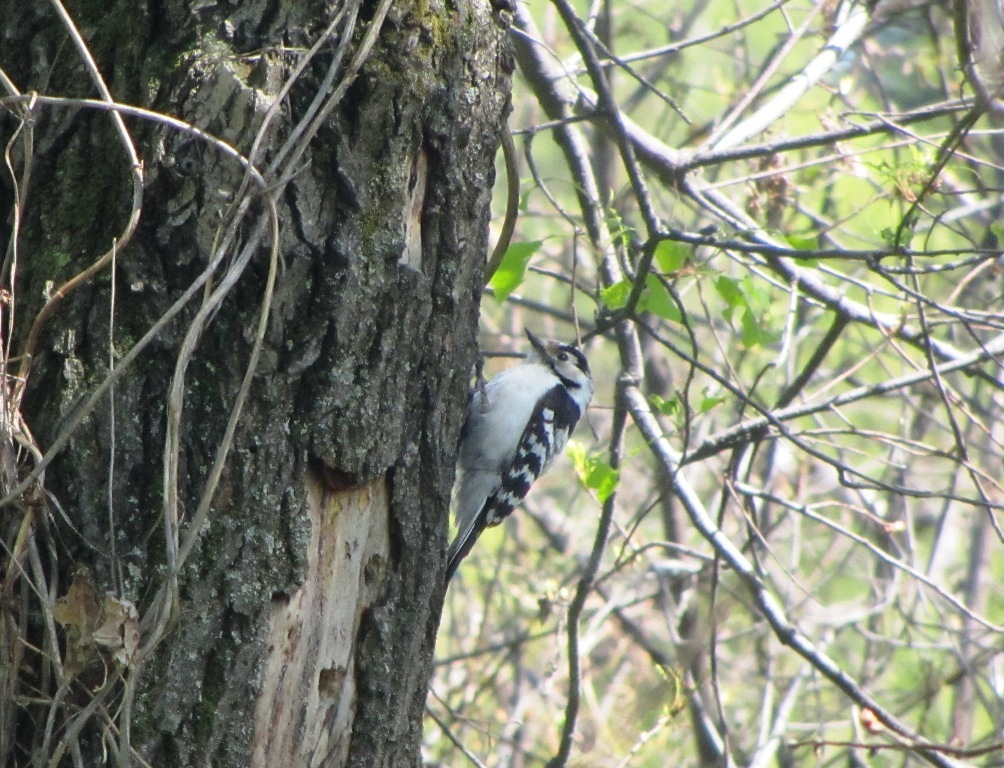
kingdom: Animalia
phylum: Chordata
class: Aves
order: Piciformes
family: Picidae
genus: Dryobates
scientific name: Dryobates minor
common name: Lesser spotted woodpecker
